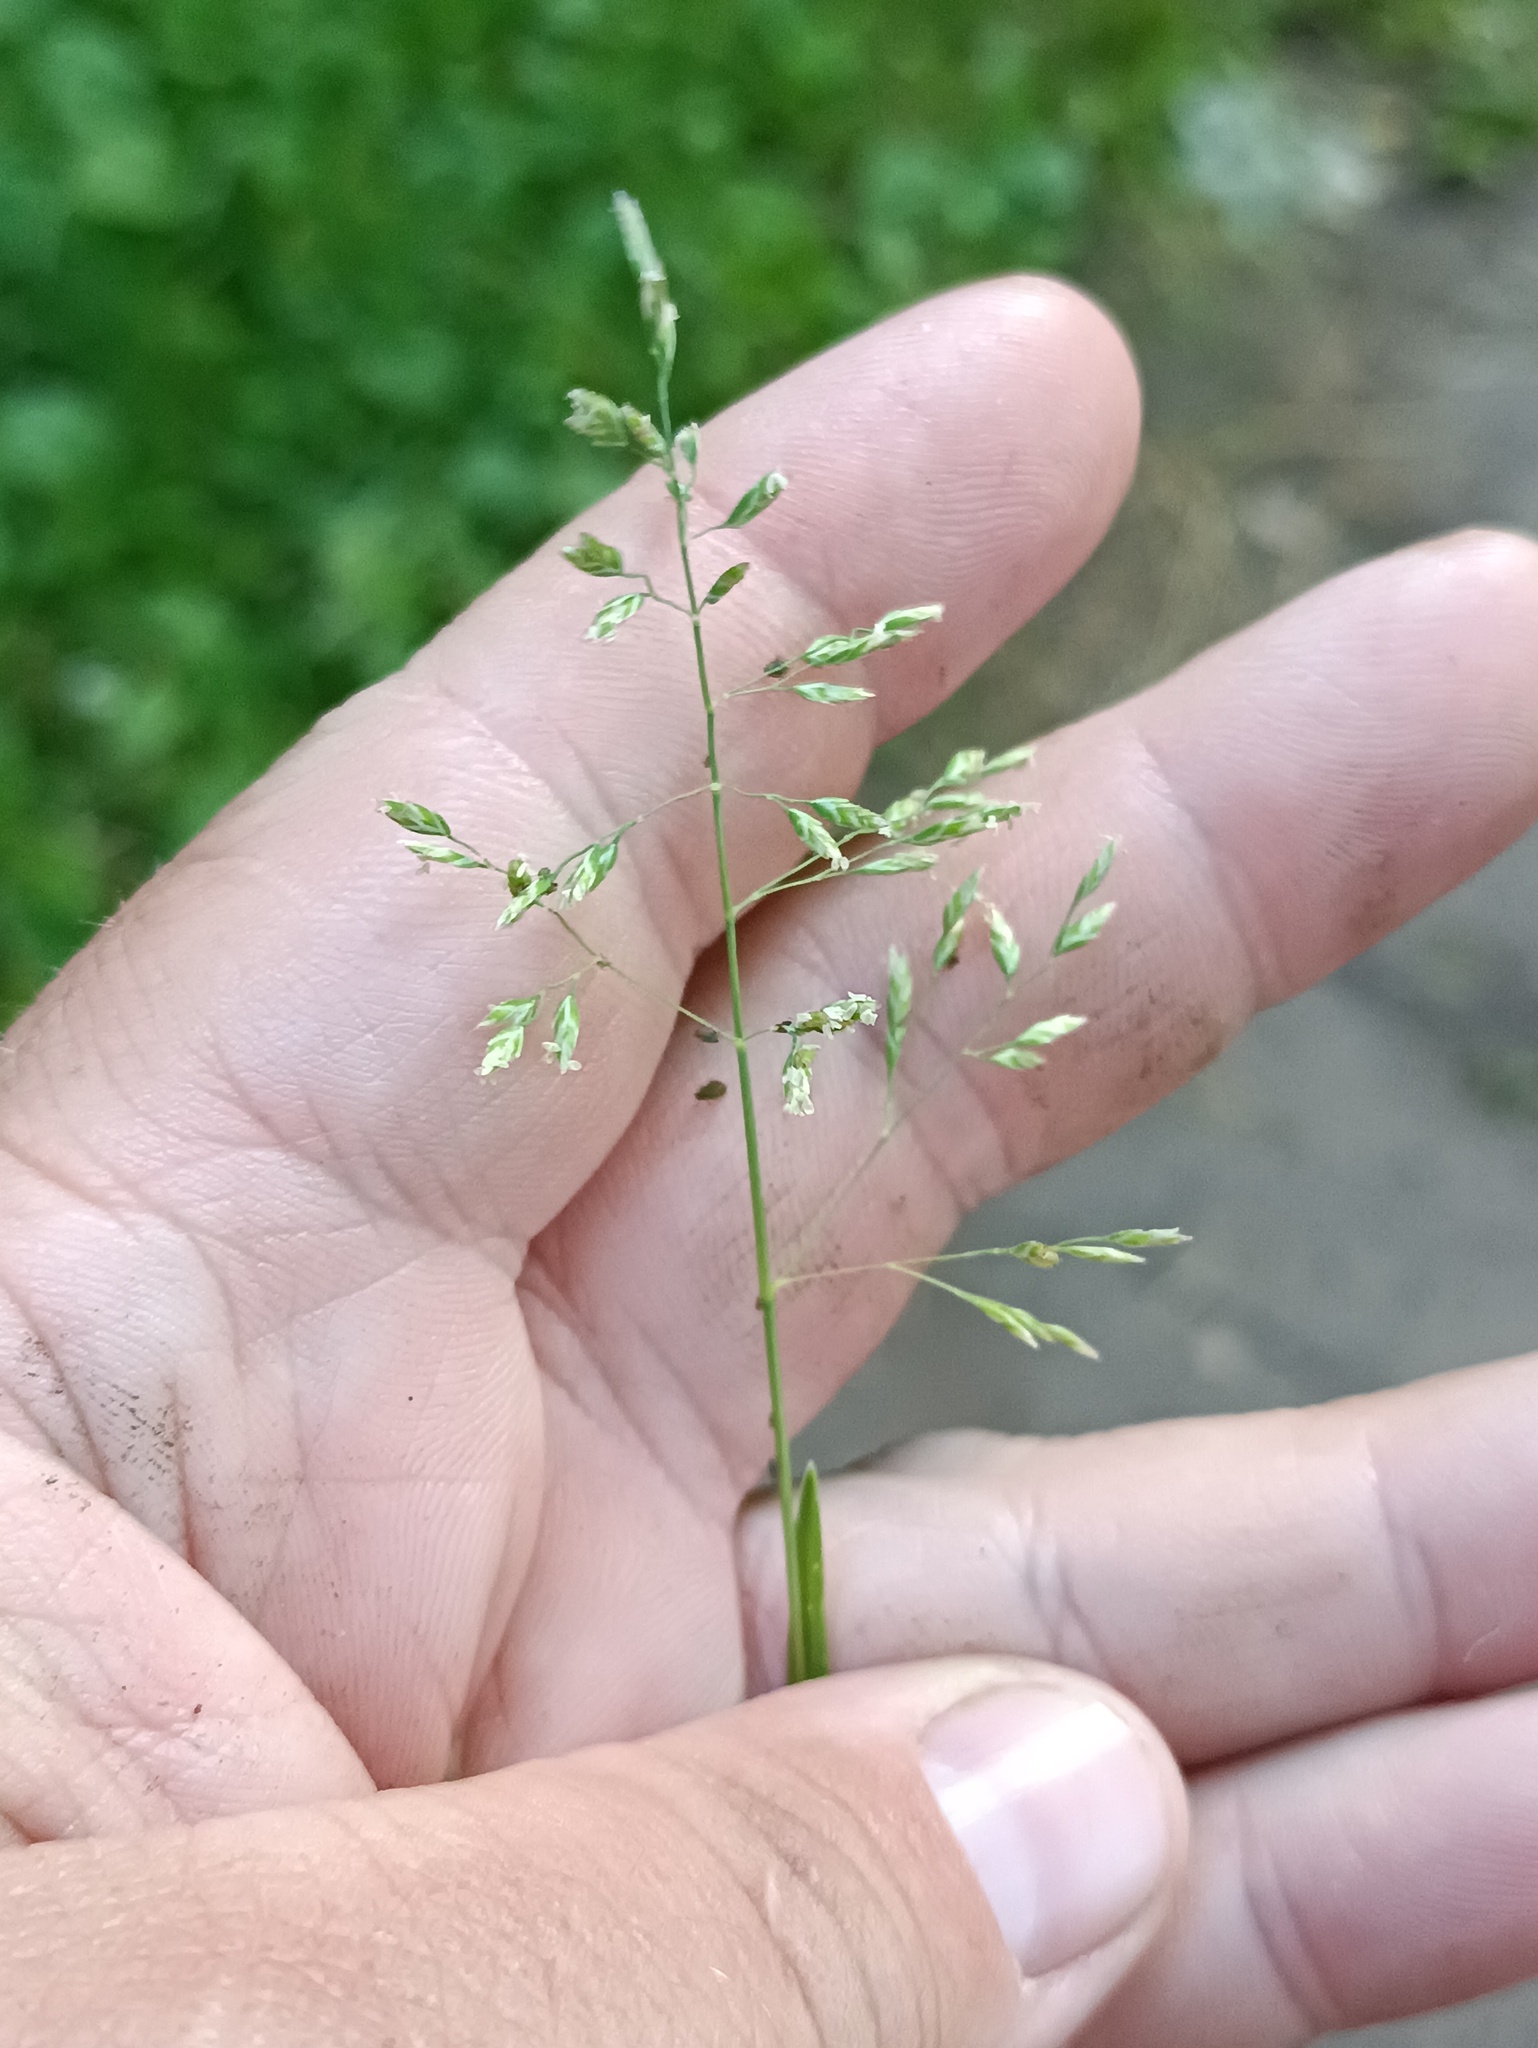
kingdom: Plantae
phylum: Tracheophyta
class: Liliopsida
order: Poales
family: Poaceae
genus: Poa
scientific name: Poa annua
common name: Annual bluegrass
